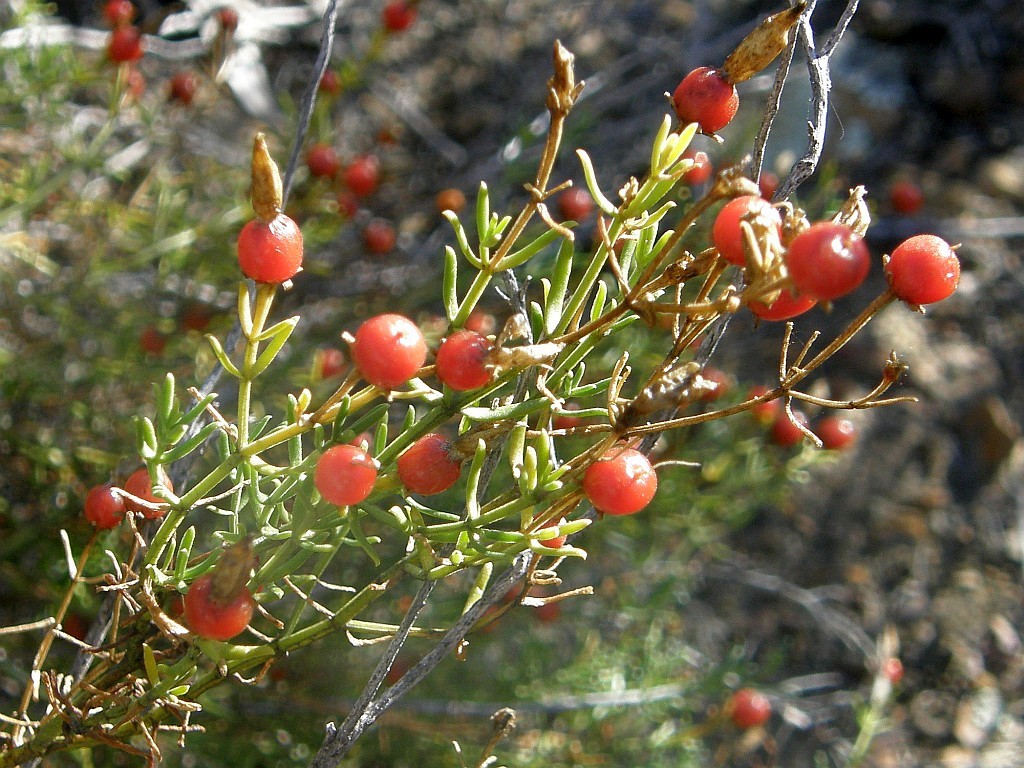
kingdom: Plantae
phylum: Tracheophyta
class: Magnoliopsida
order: Gentianales
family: Gentianaceae
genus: Chironia
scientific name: Chironia baccifera
